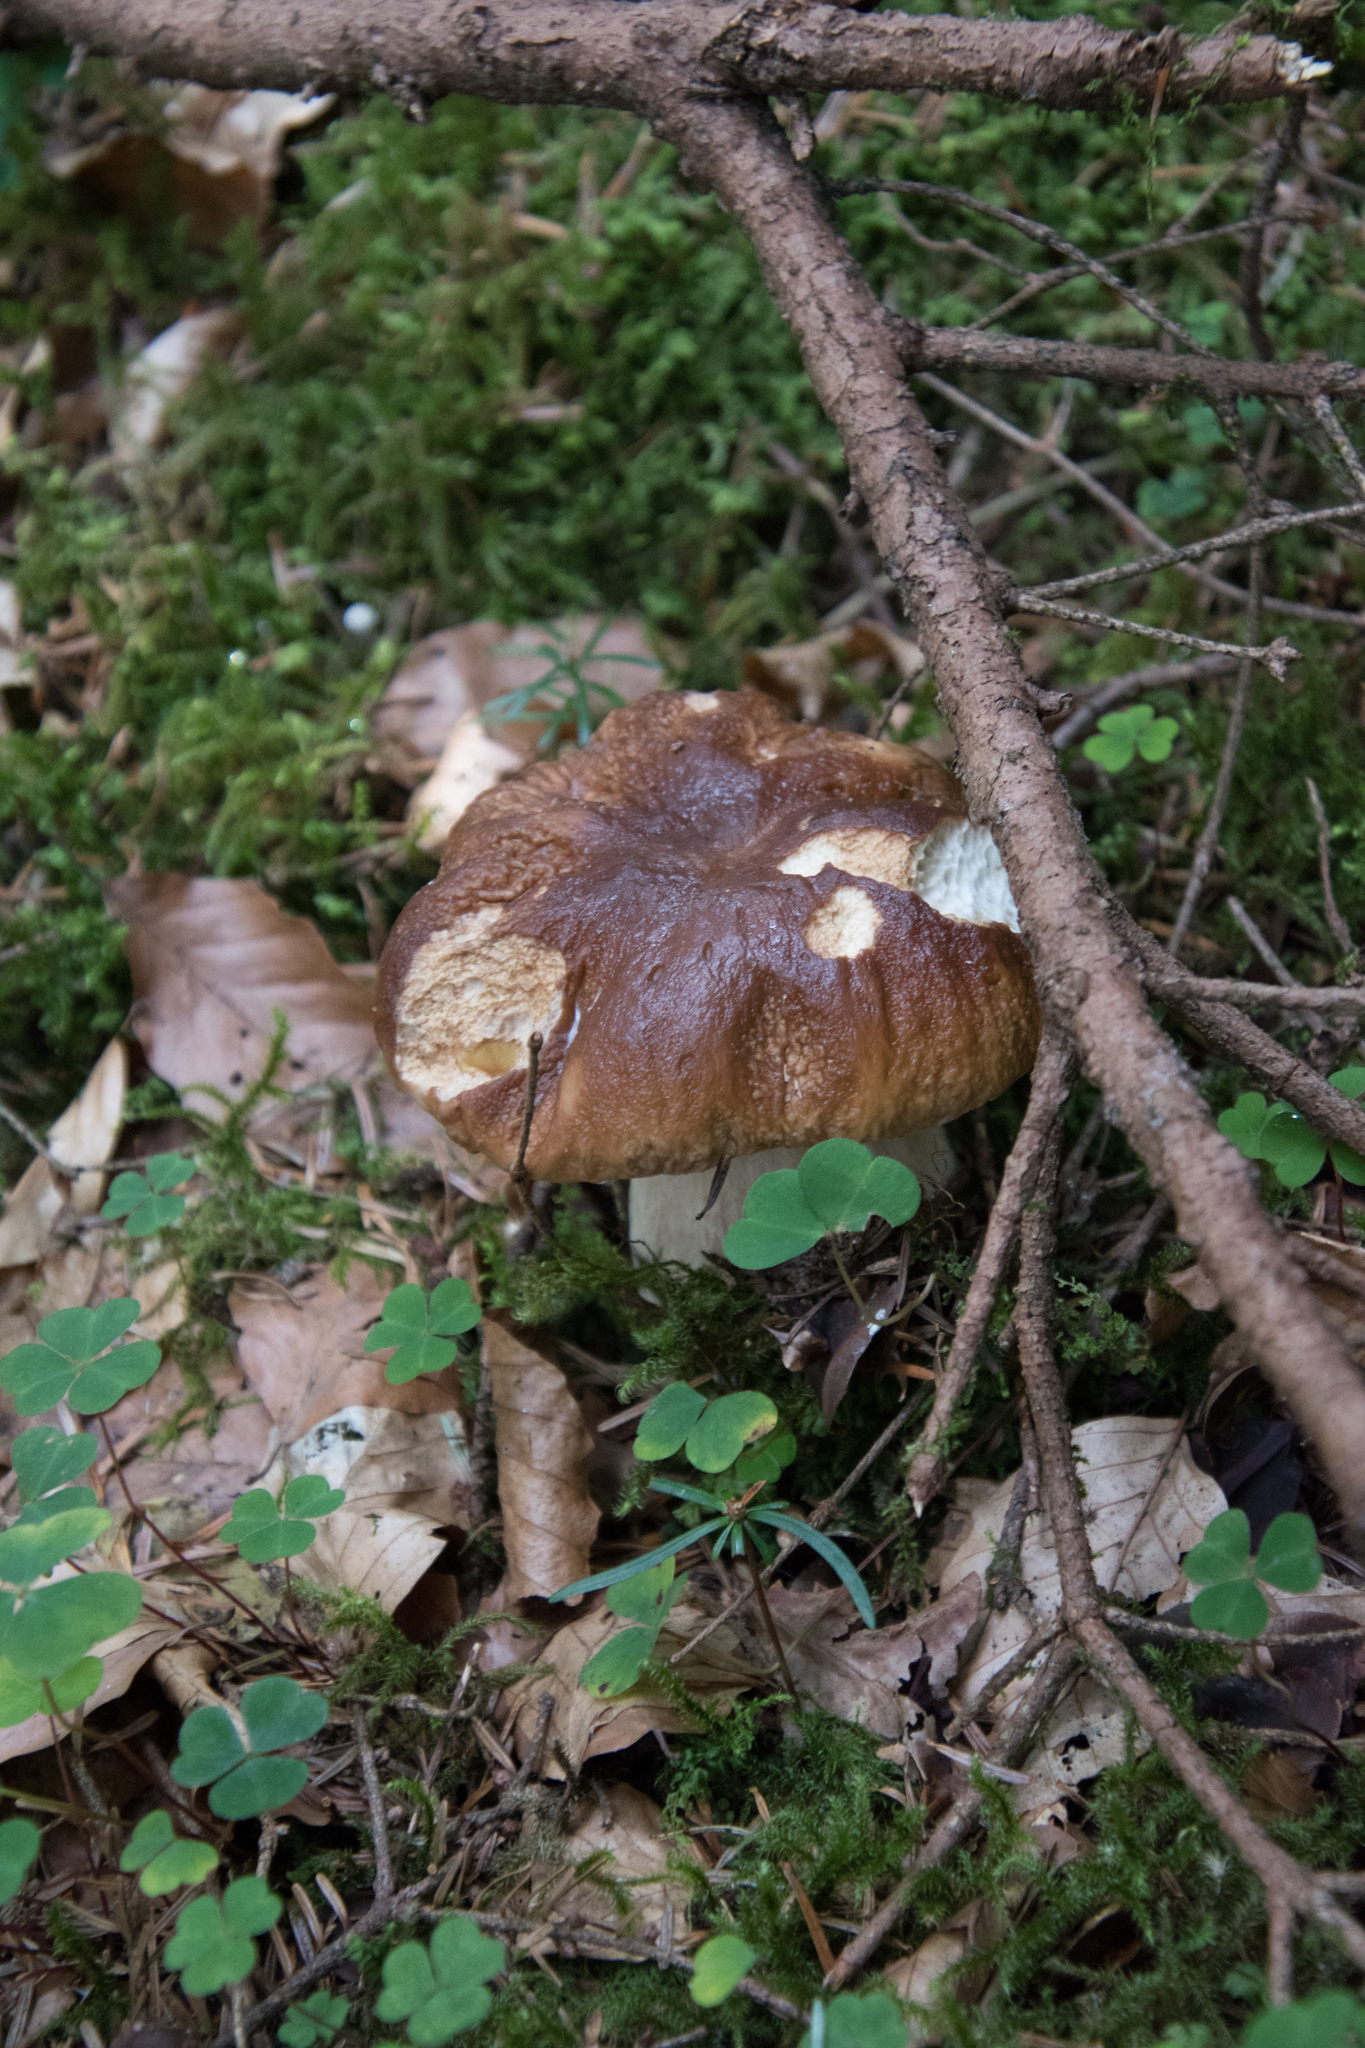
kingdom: Fungi
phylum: Basidiomycota
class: Agaricomycetes
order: Boletales
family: Boletaceae
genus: Boletus
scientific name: Boletus edulis
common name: Cep
